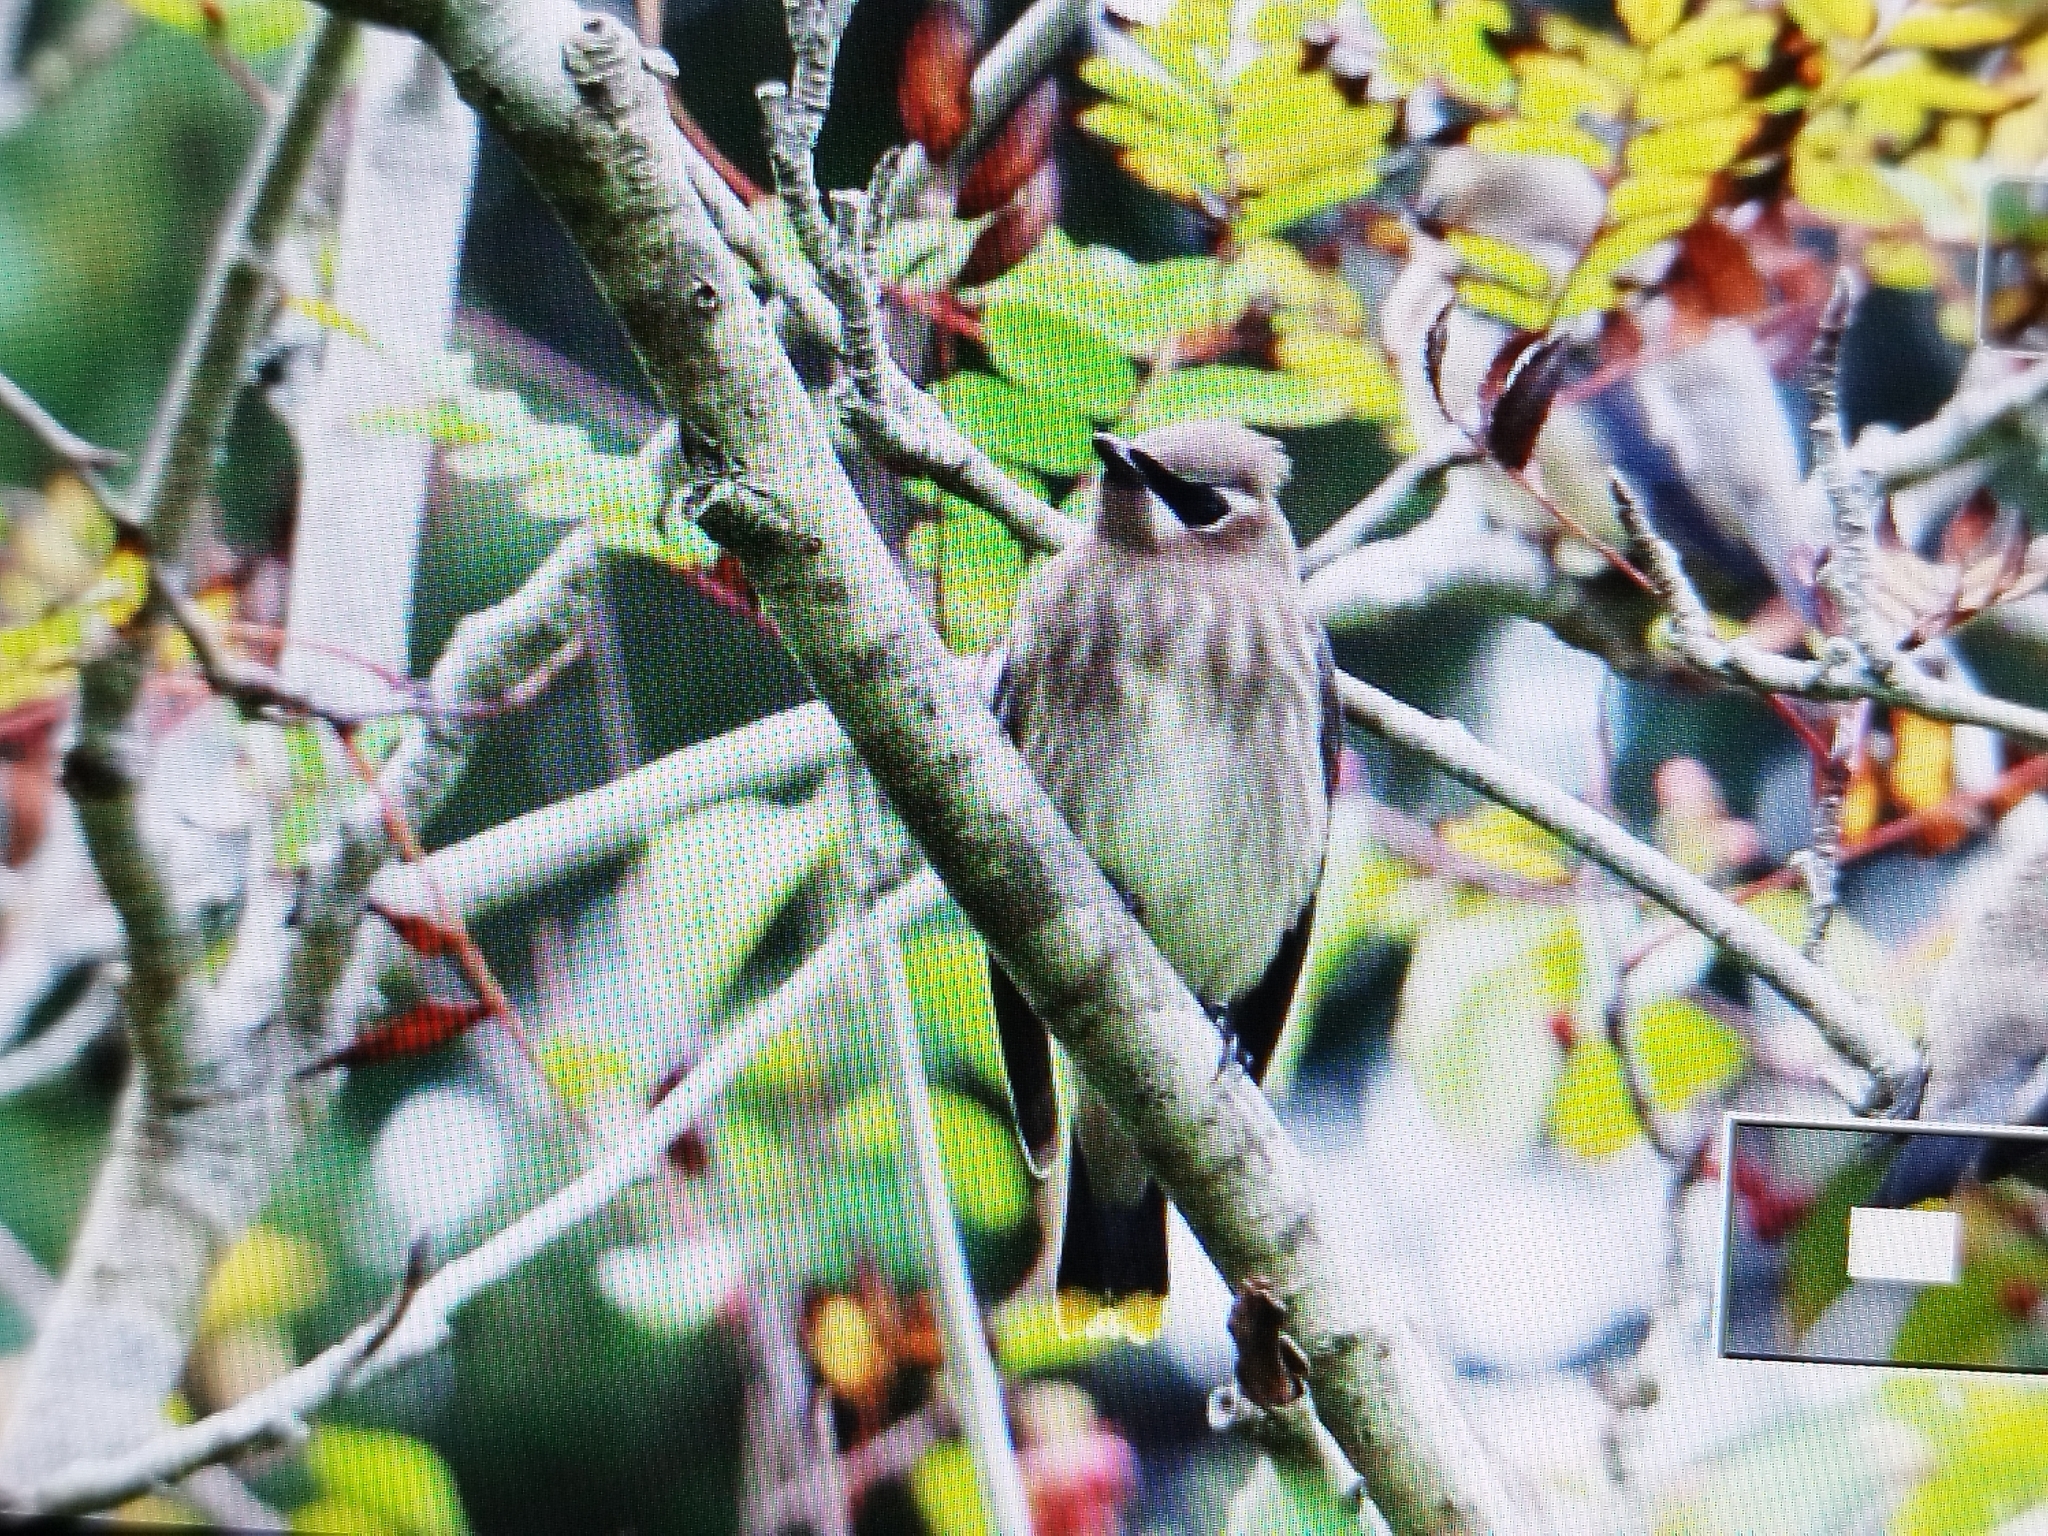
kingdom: Animalia
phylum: Chordata
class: Aves
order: Passeriformes
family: Bombycillidae
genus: Bombycilla
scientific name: Bombycilla cedrorum
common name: Cedar waxwing
